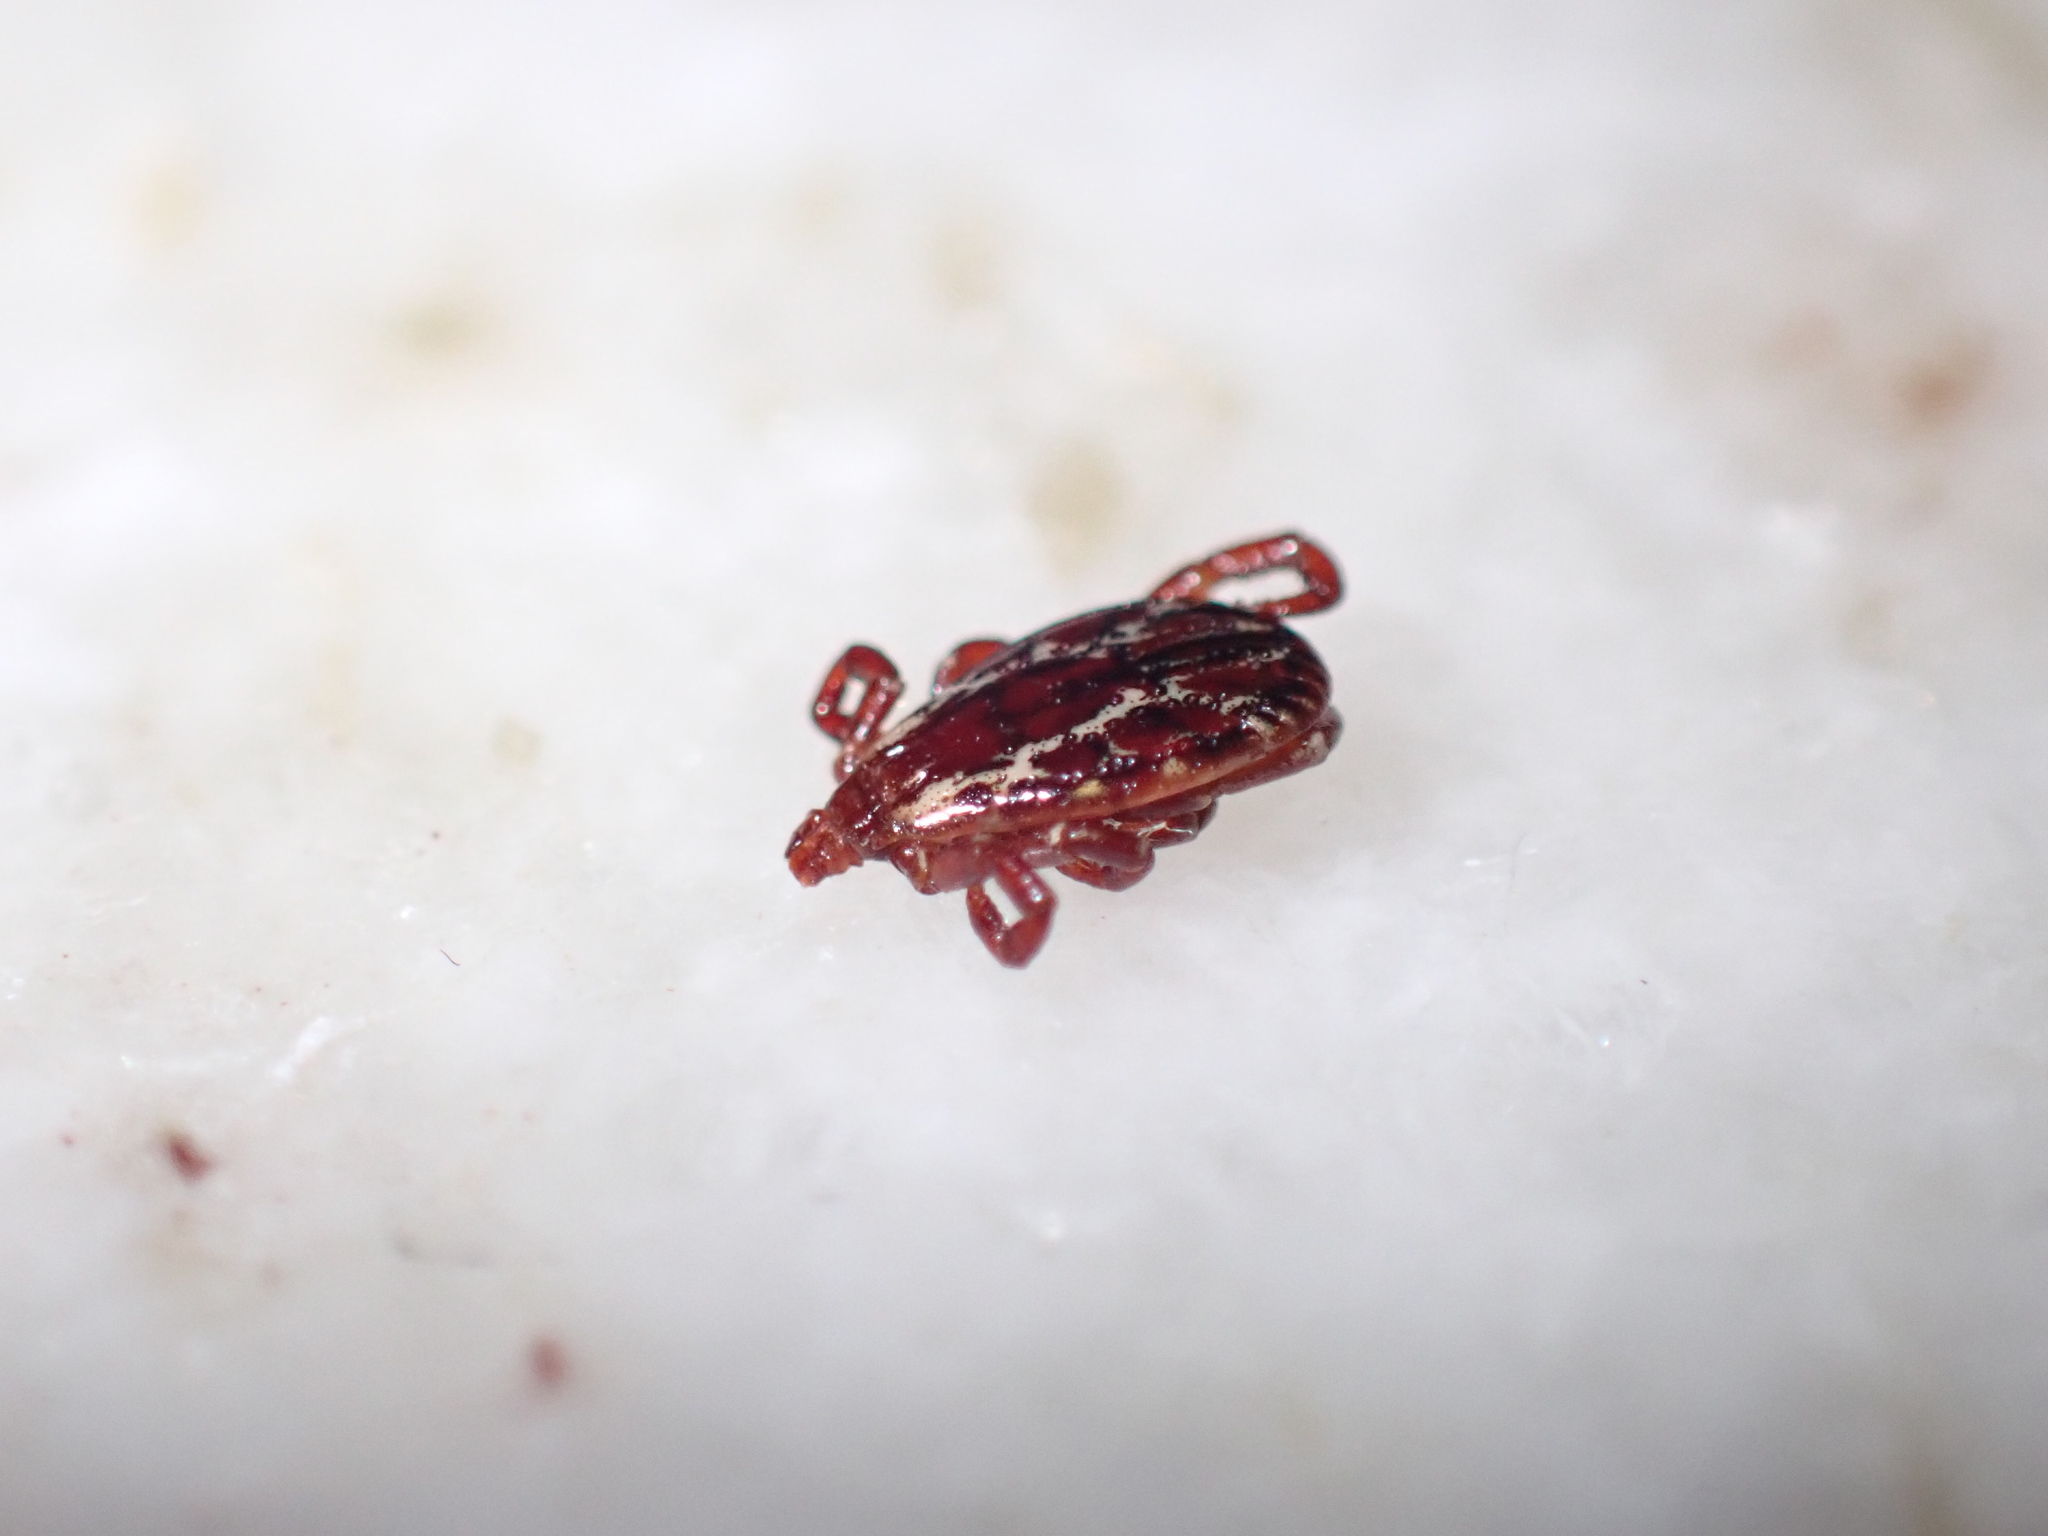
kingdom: Animalia
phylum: Arthropoda
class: Arachnida
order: Ixodida
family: Ixodidae
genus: Dermacentor
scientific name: Dermacentor variabilis
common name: American dog tick
